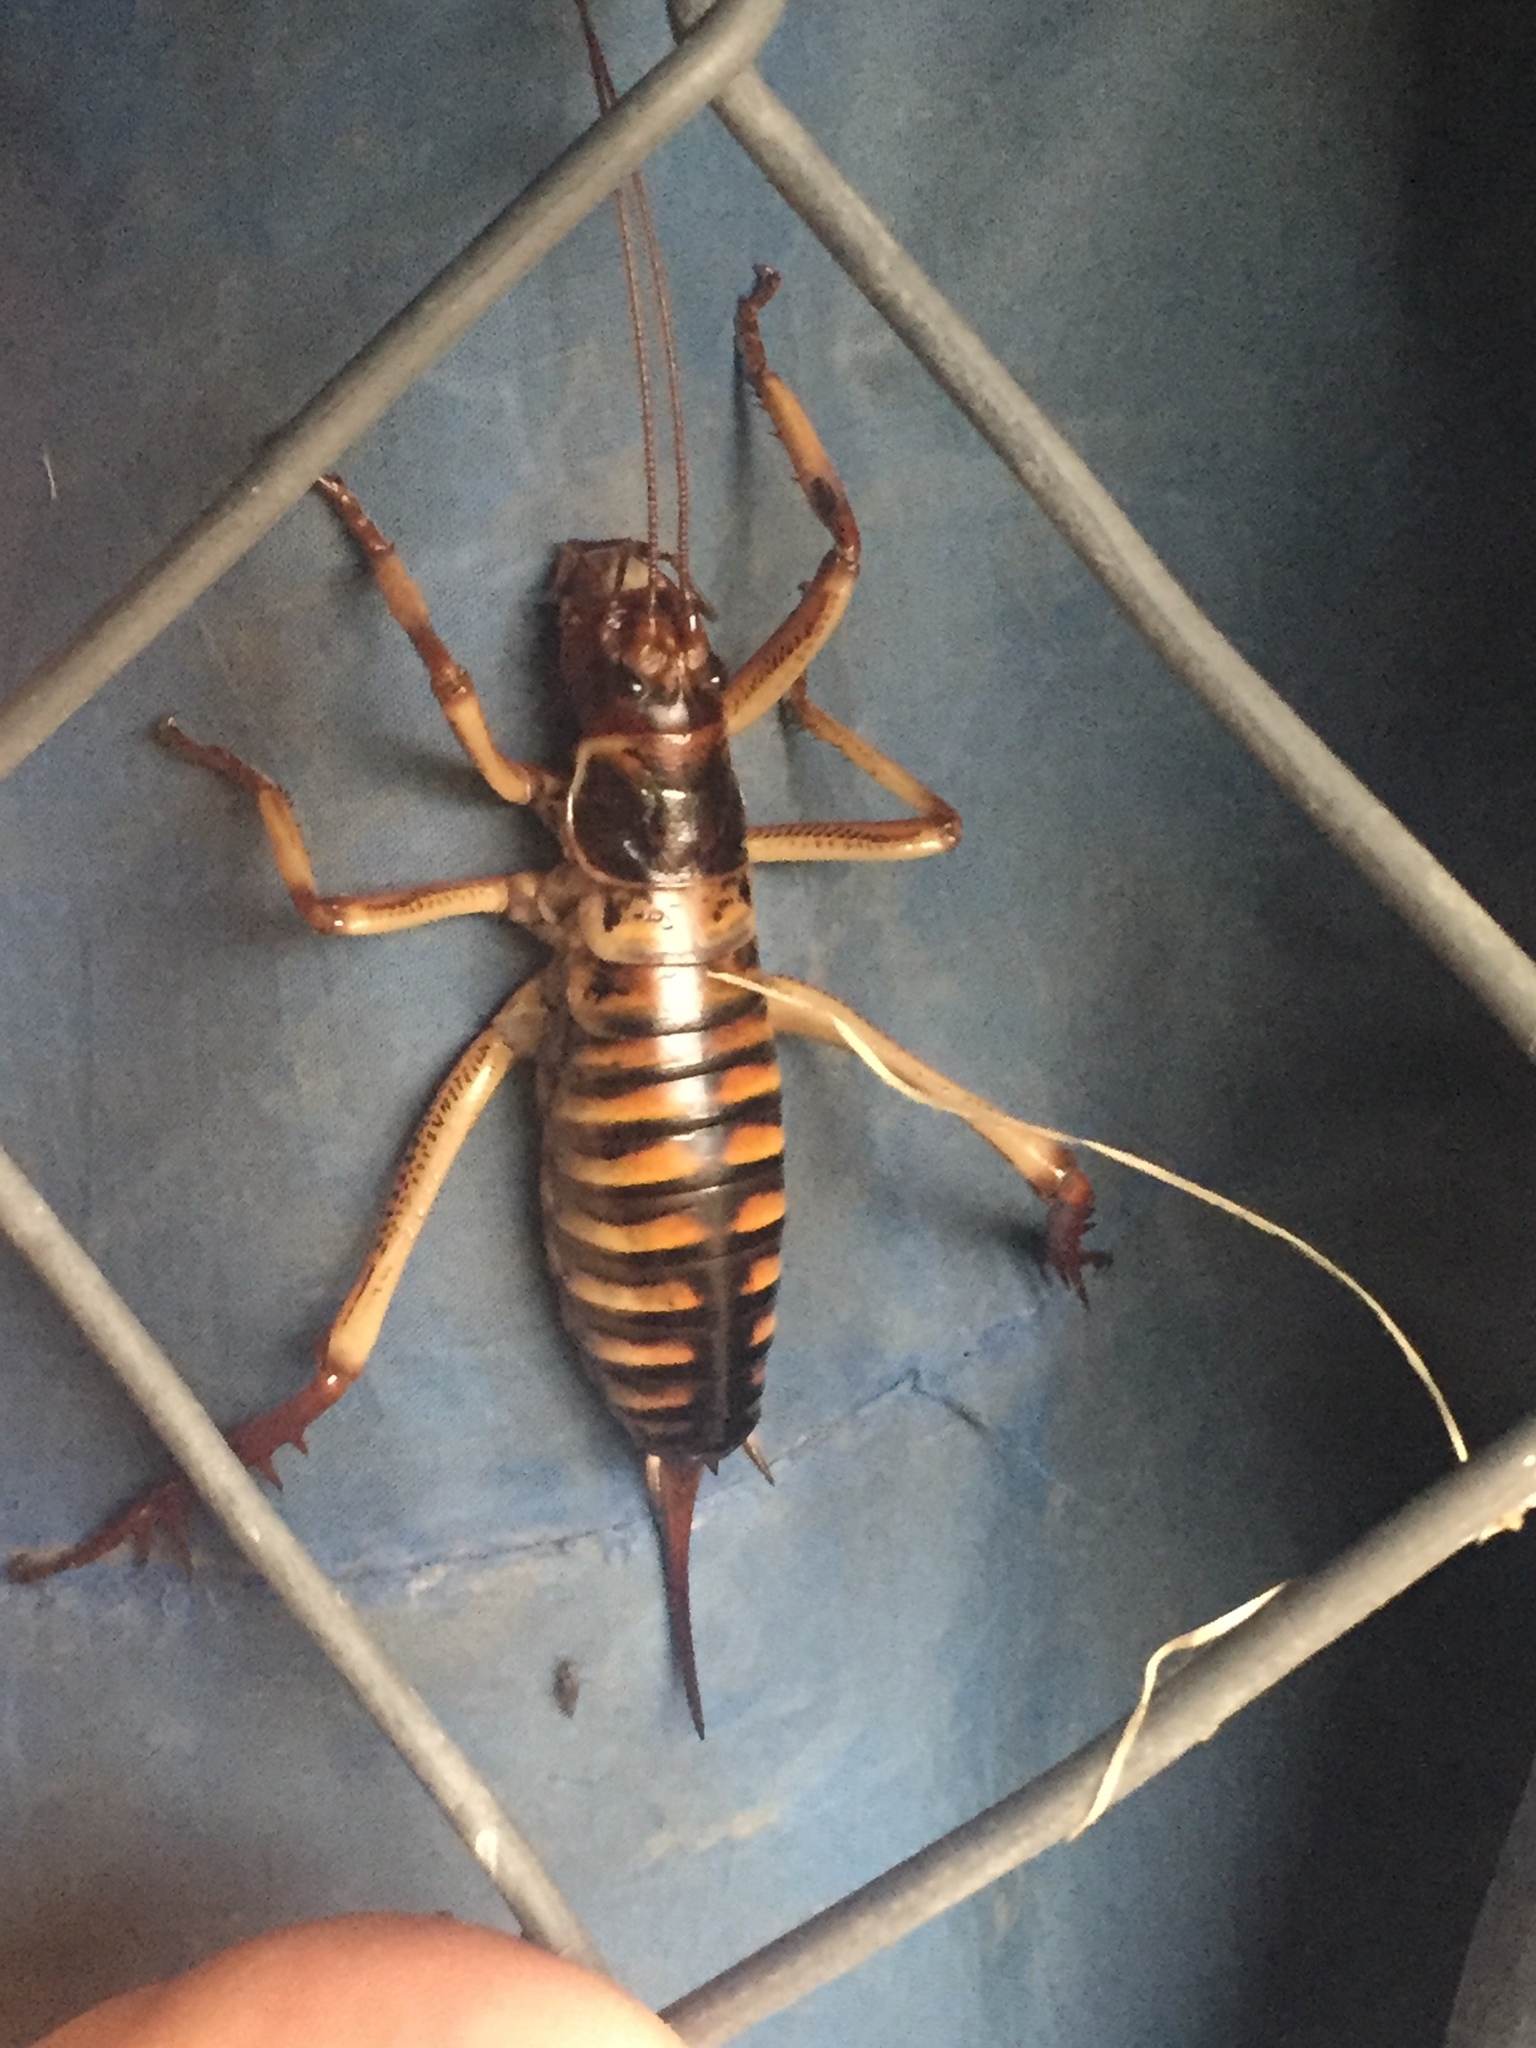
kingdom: Animalia
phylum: Arthropoda
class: Insecta
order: Orthoptera
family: Anostostomatidae
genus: Hemideina
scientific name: Hemideina crassidens
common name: Wellington tree weta
